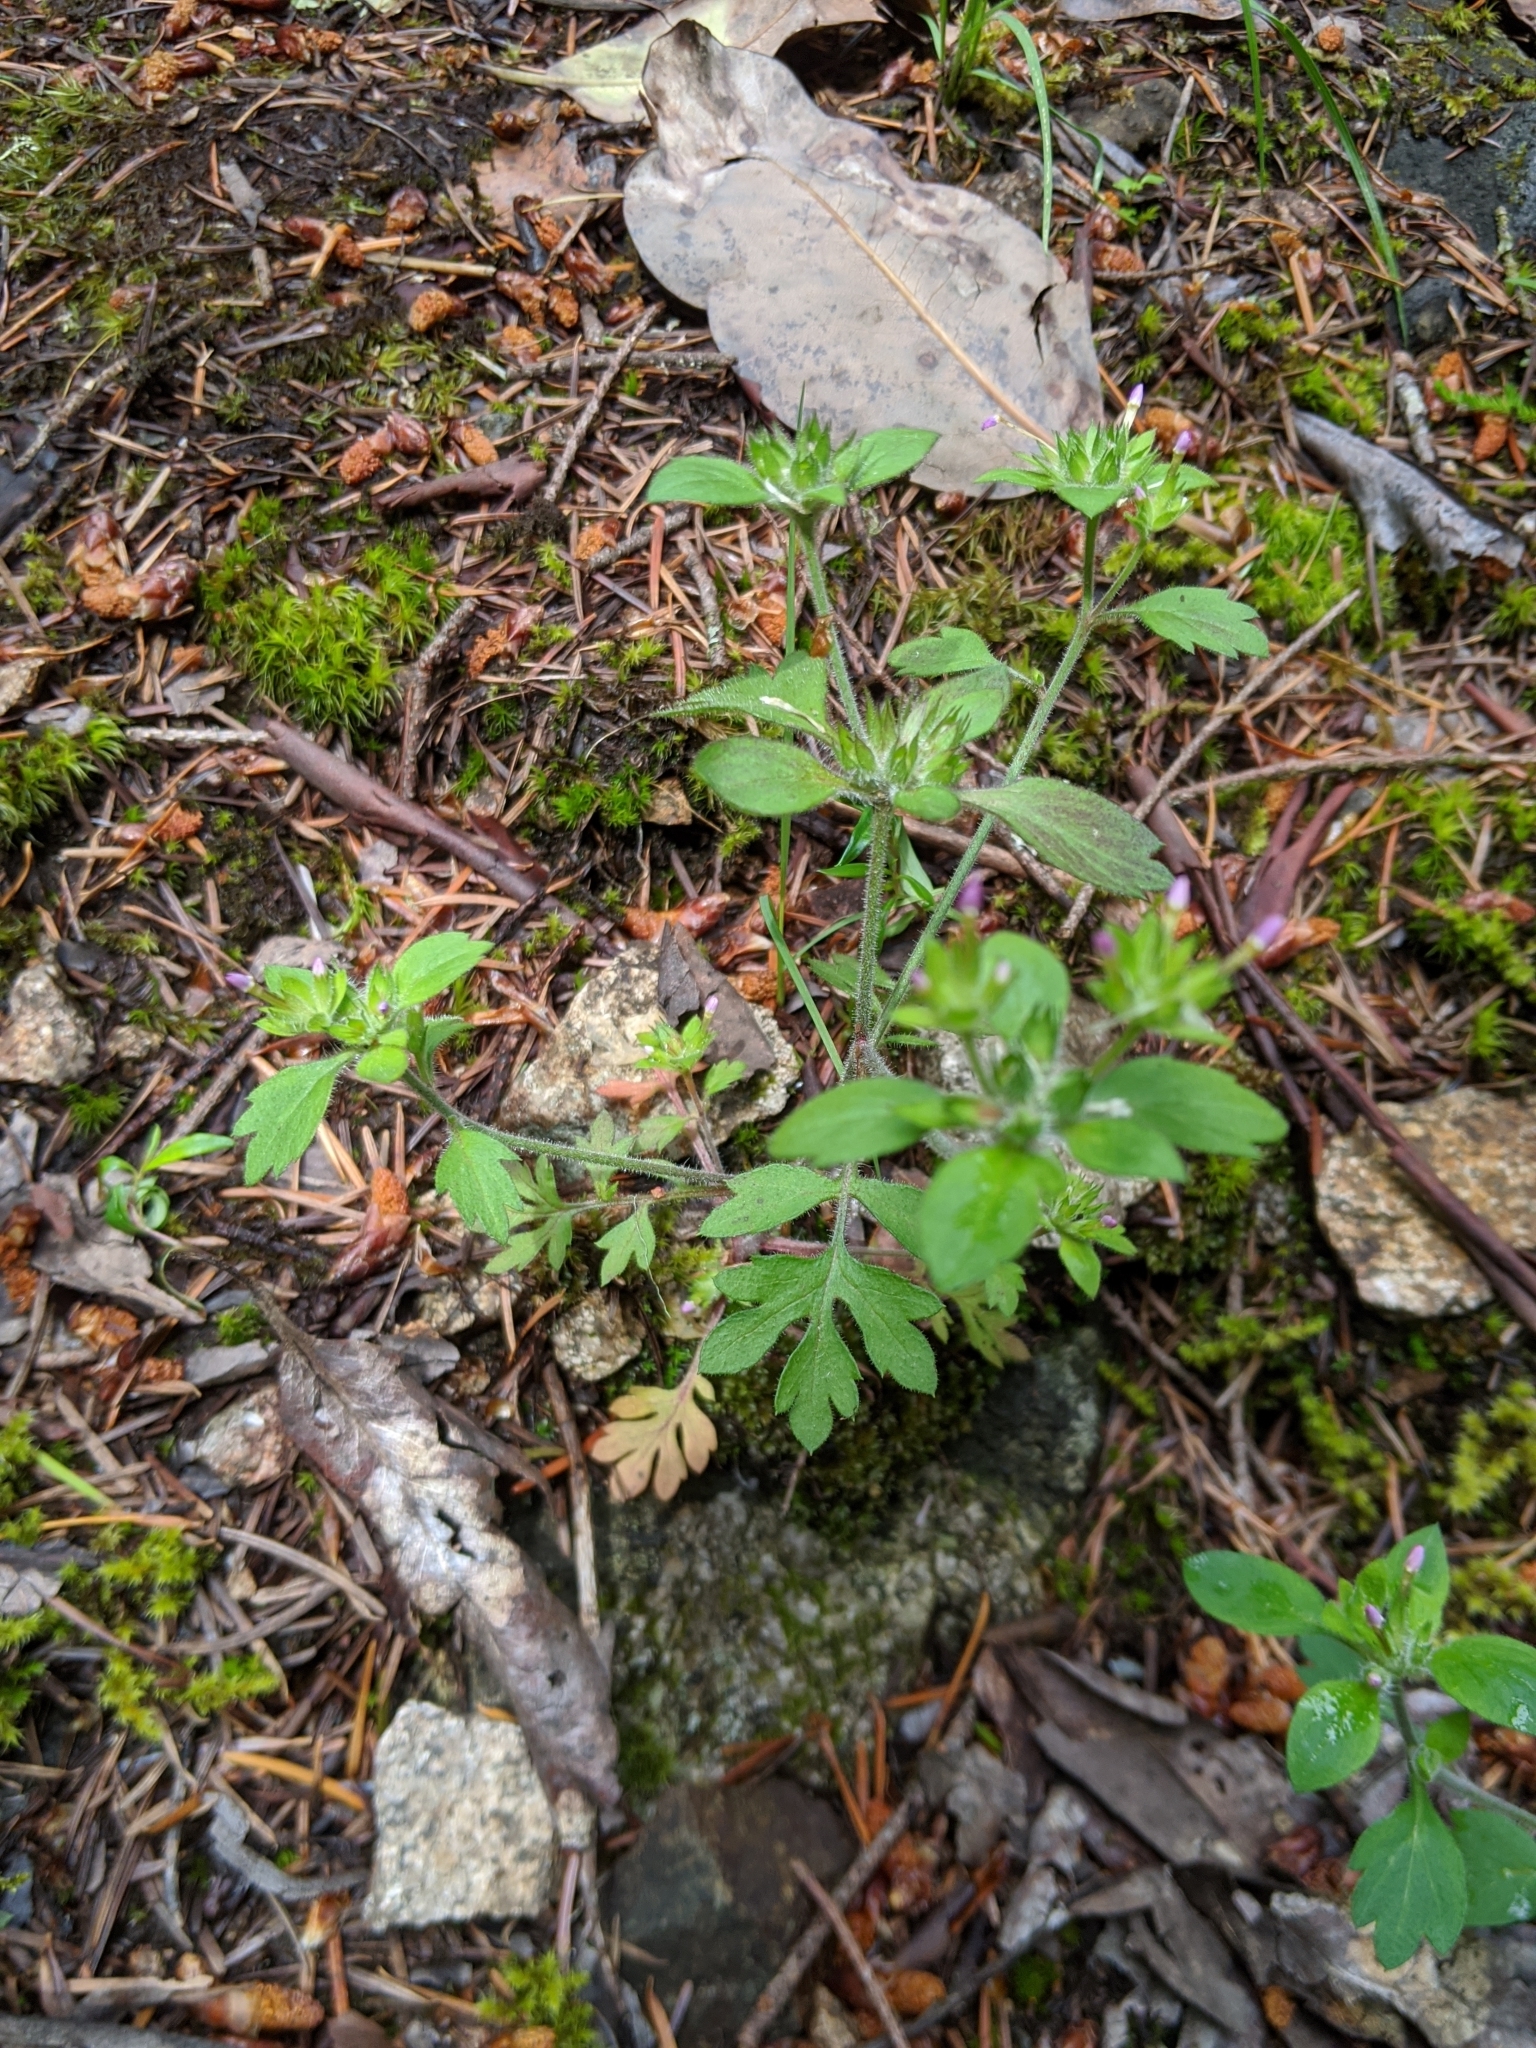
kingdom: Plantae
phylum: Tracheophyta
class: Magnoliopsida
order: Ericales
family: Polemoniaceae
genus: Collomia
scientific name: Collomia heterophylla
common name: Variable-leaved collomia
